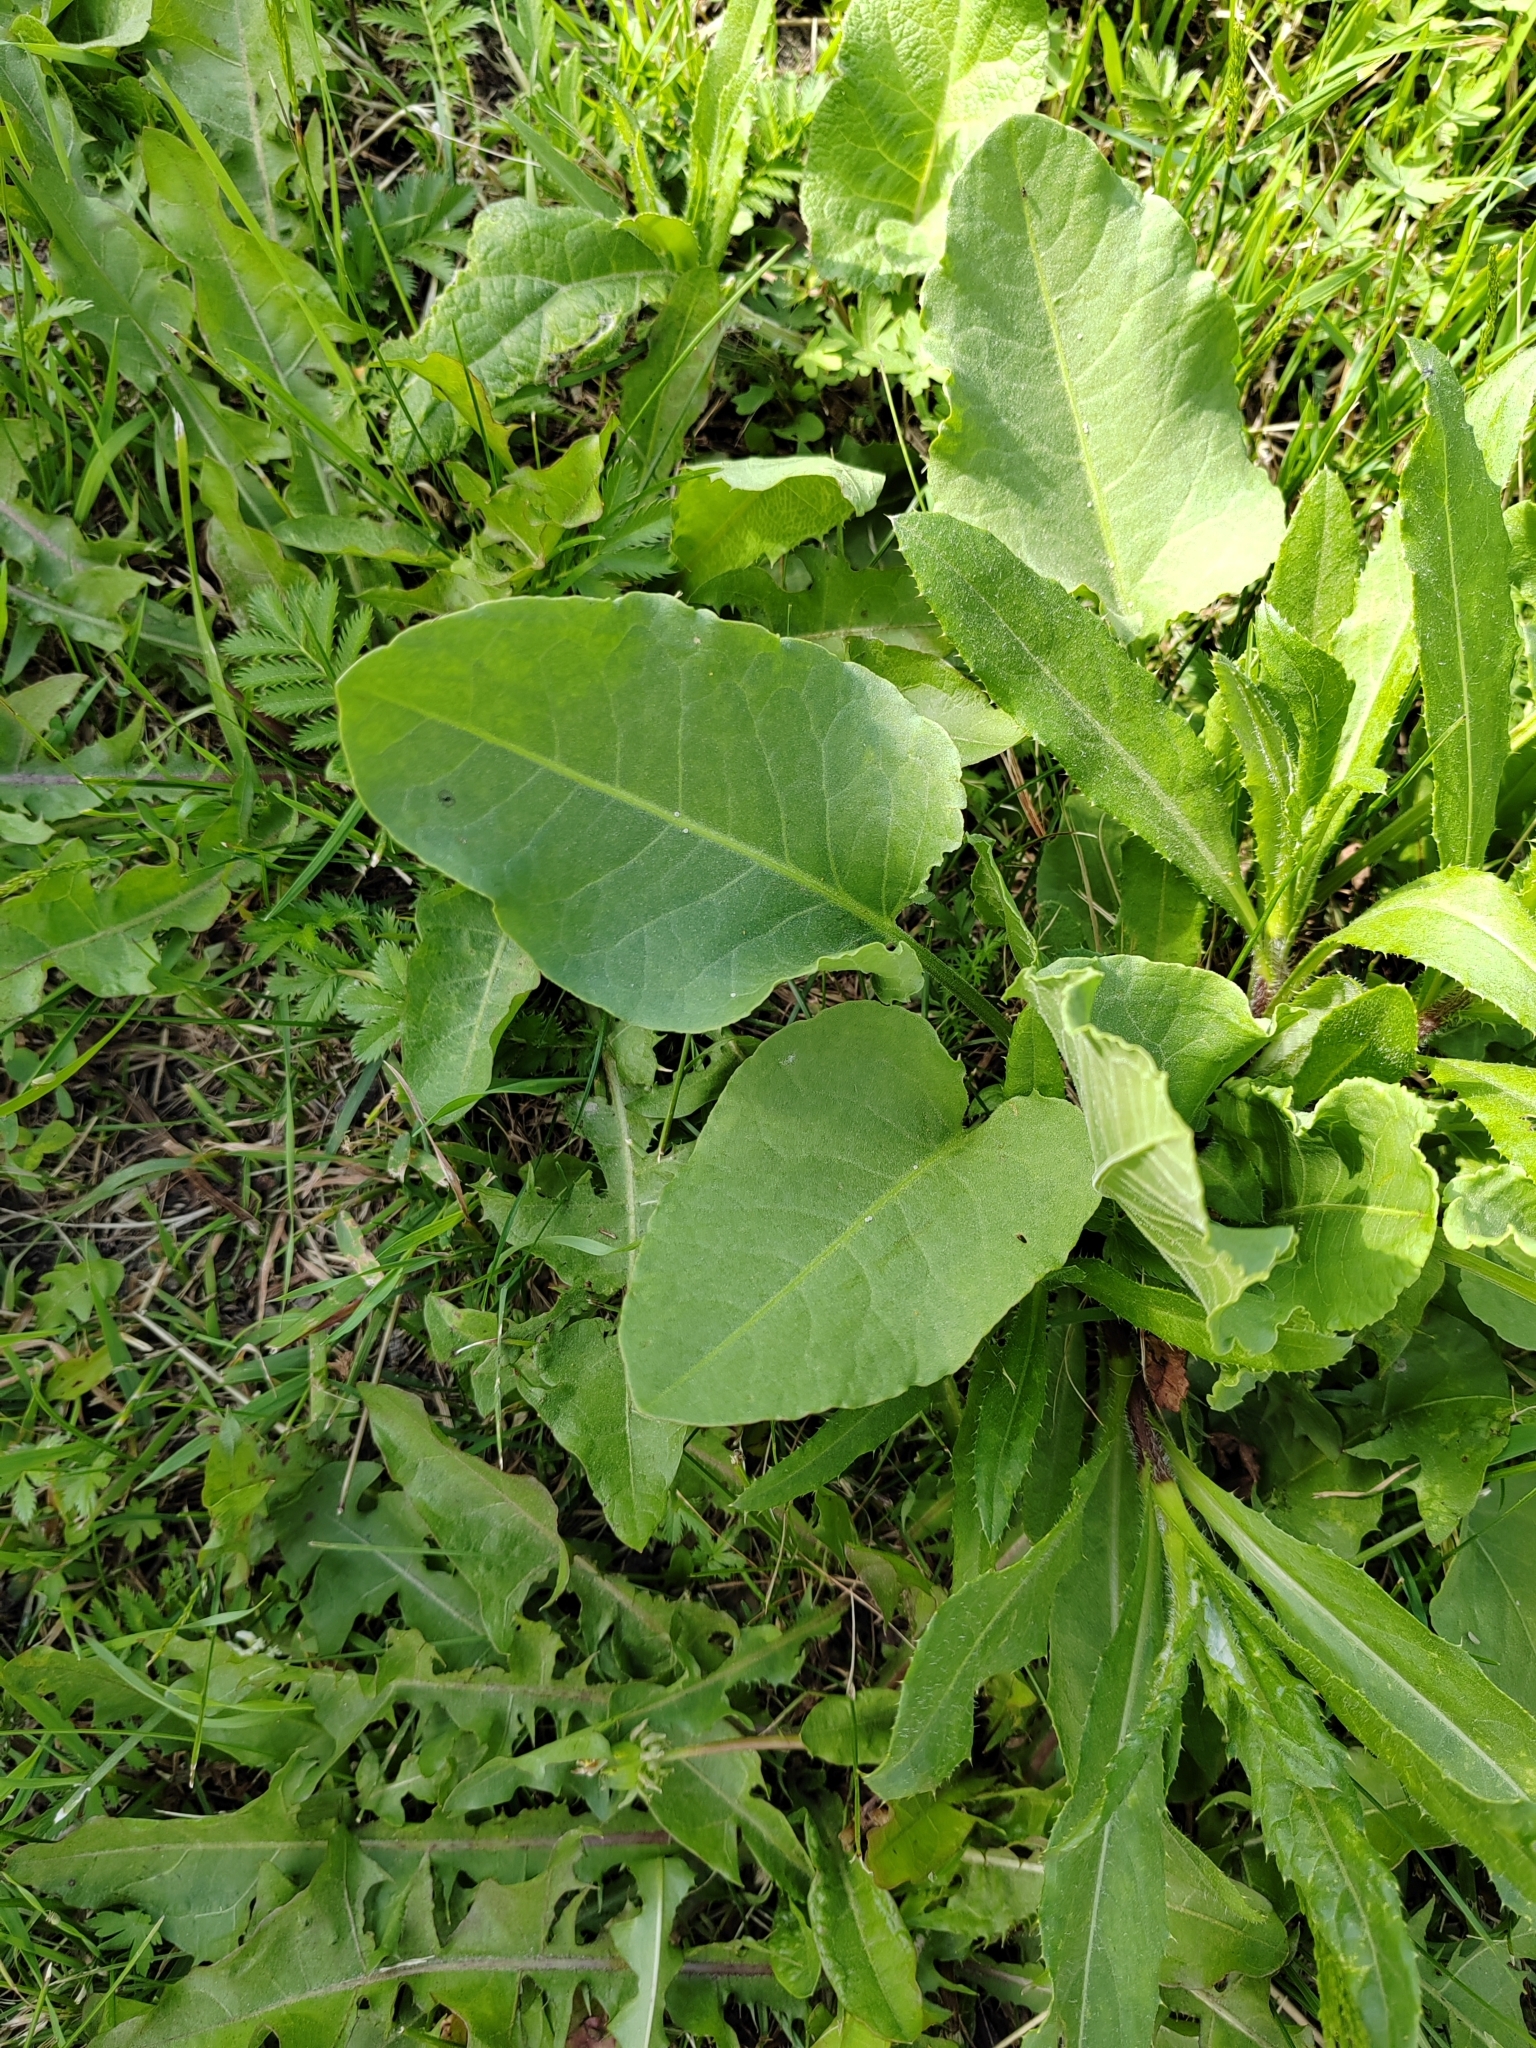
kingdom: Plantae
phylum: Tracheophyta
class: Magnoliopsida
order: Caryophyllales
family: Polygonaceae
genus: Rumex
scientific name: Rumex confertus
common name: Russian dock
